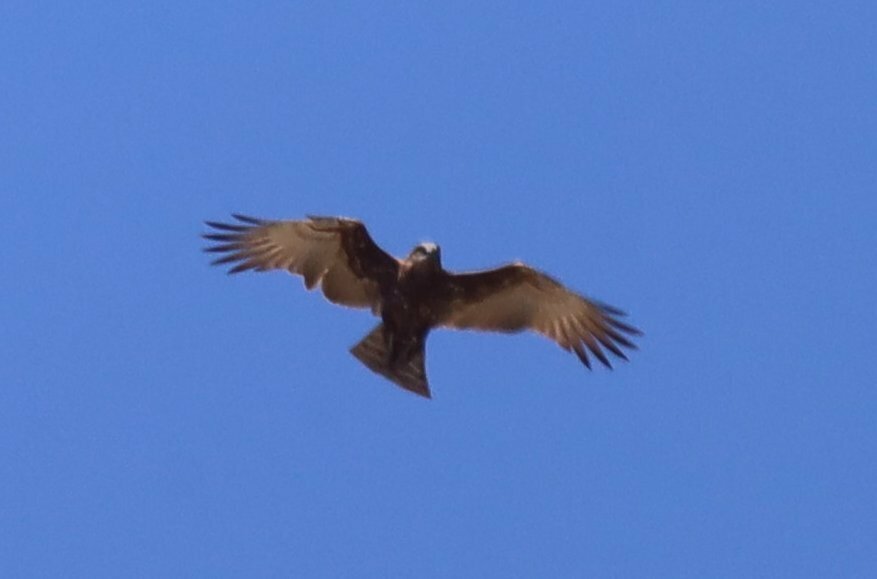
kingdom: Animalia
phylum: Chordata
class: Aves
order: Accipitriformes
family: Accipitridae
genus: Circaetus
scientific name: Circaetus cinereus
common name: Brown snake eagle
